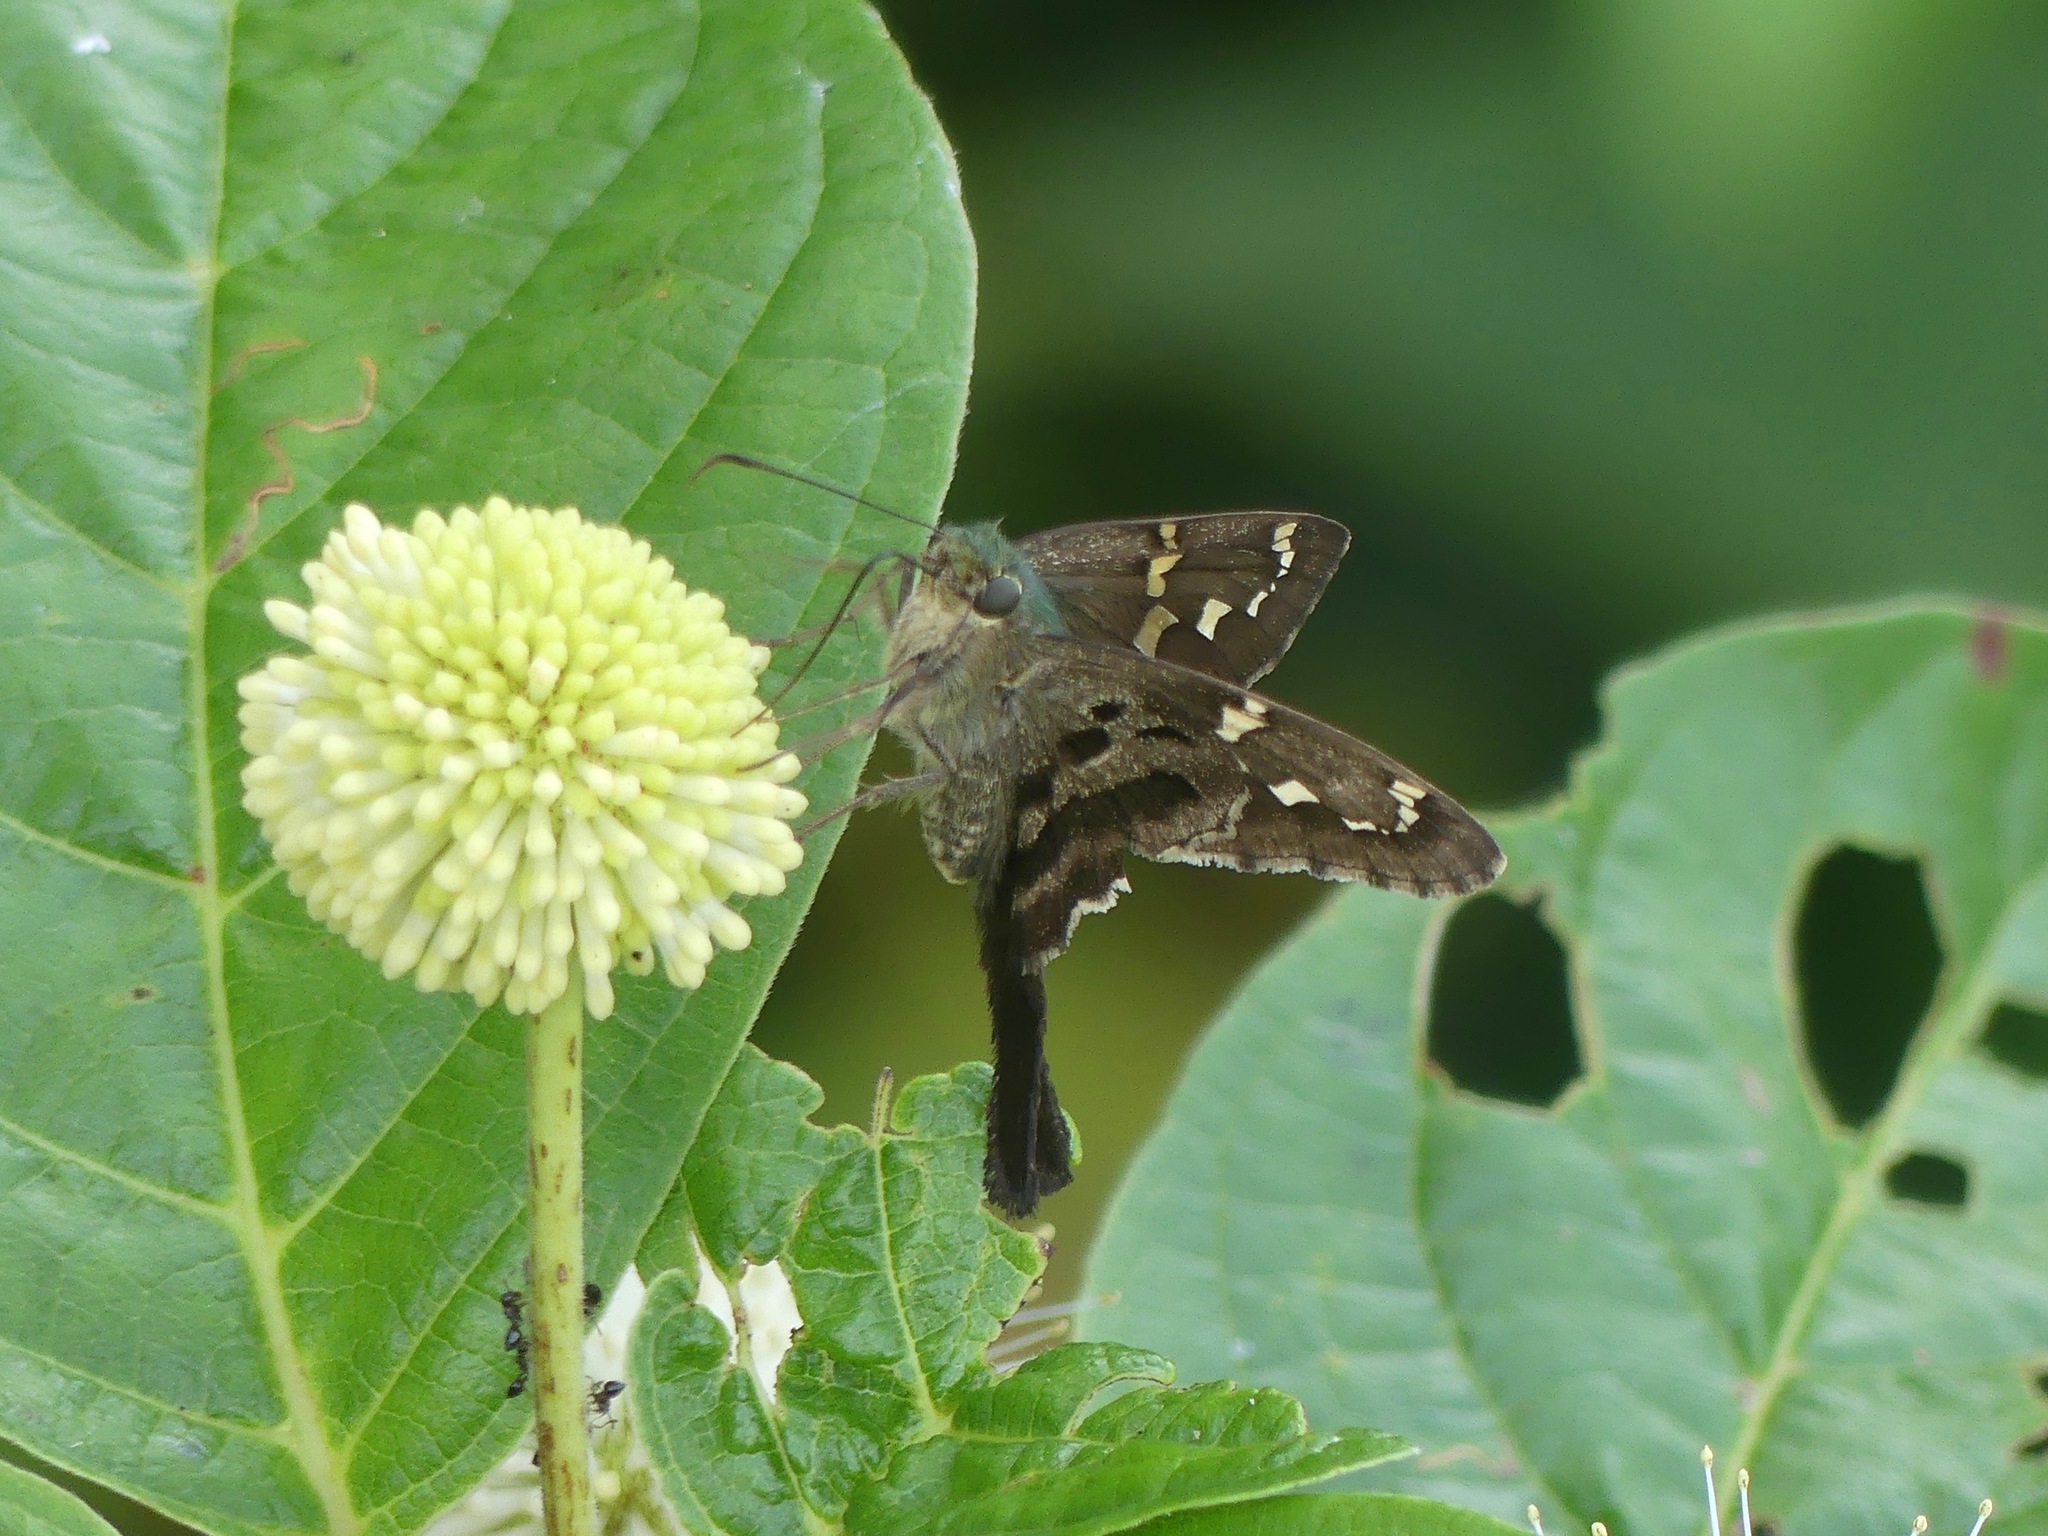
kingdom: Animalia
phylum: Arthropoda
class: Insecta
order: Lepidoptera
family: Hesperiidae
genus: Urbanus
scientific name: Urbanus proteus
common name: Long-tailed skipper
